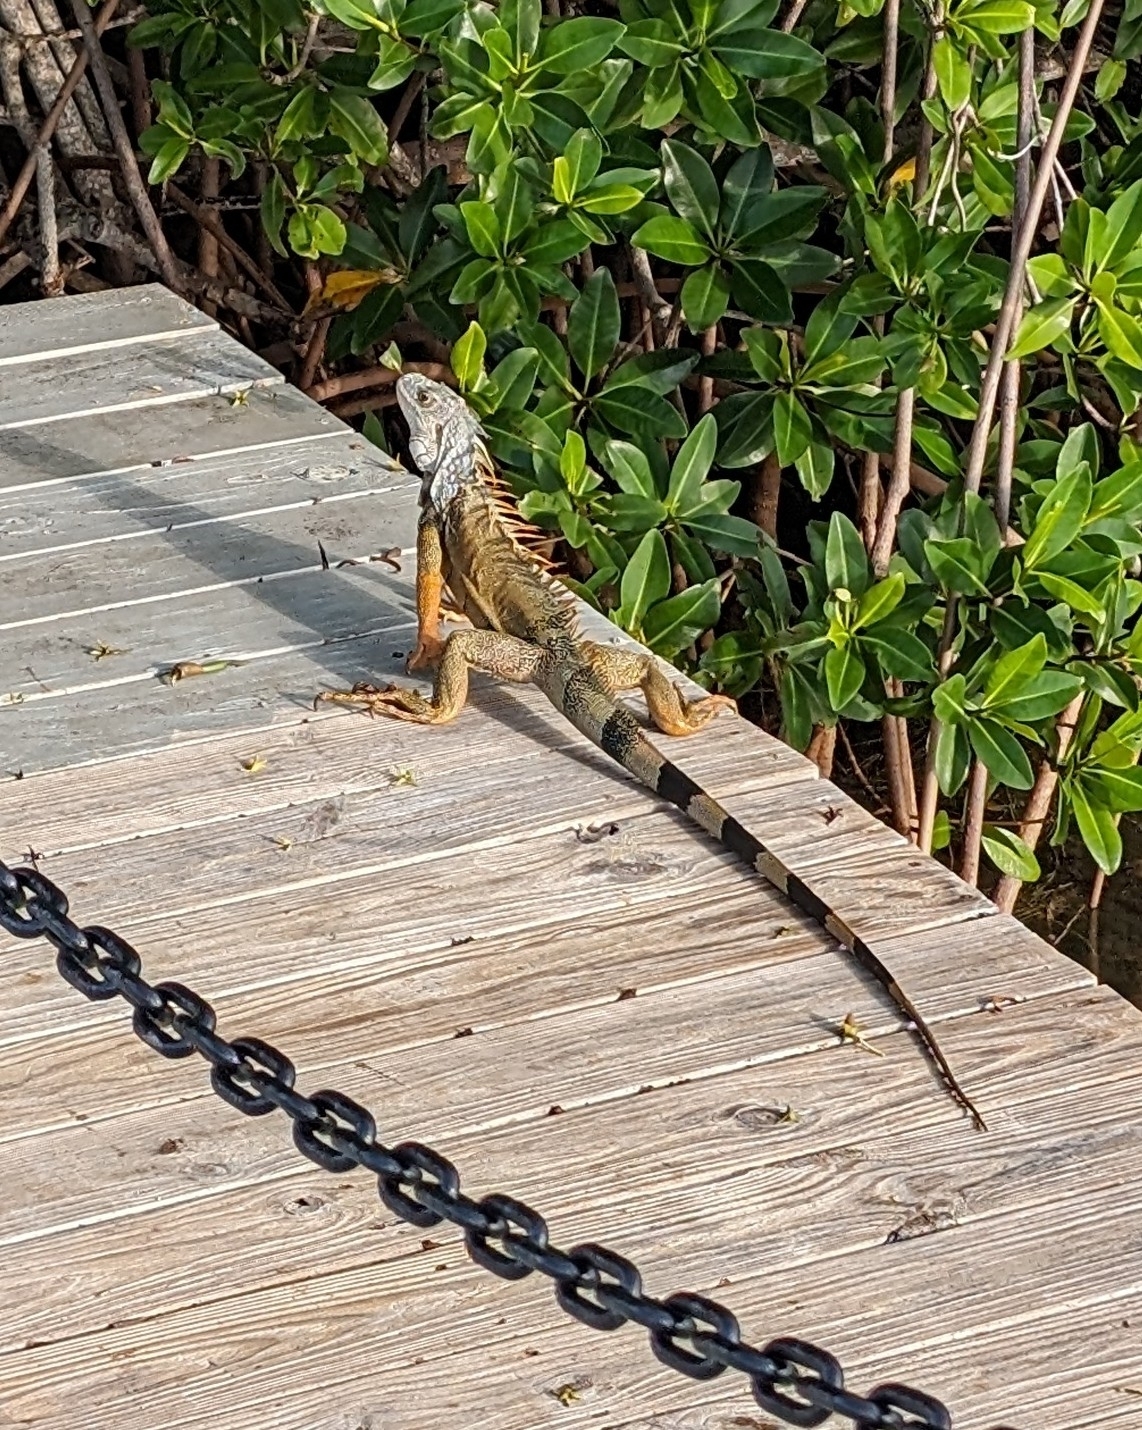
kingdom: Animalia
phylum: Chordata
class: Squamata
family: Iguanidae
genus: Iguana
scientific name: Iguana iguana
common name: Green iguana
